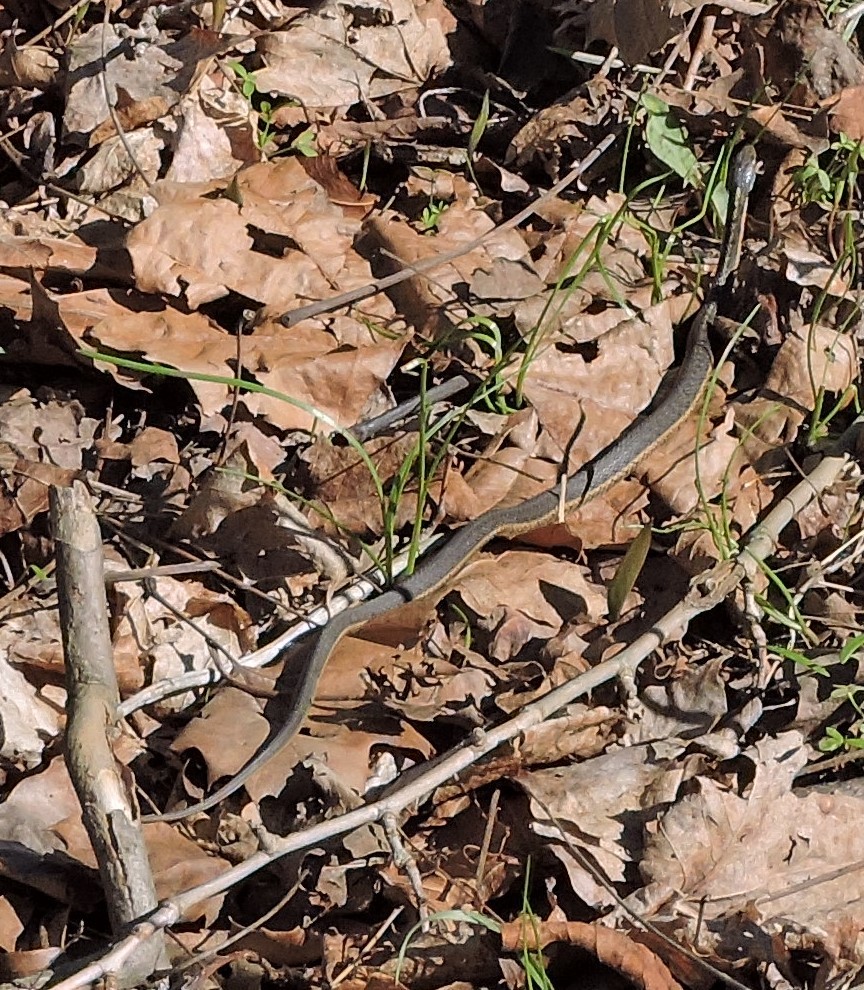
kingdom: Animalia
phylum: Chordata
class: Squamata
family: Colubridae
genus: Thamnophis
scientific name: Thamnophis sirtalis
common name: Common garter snake
